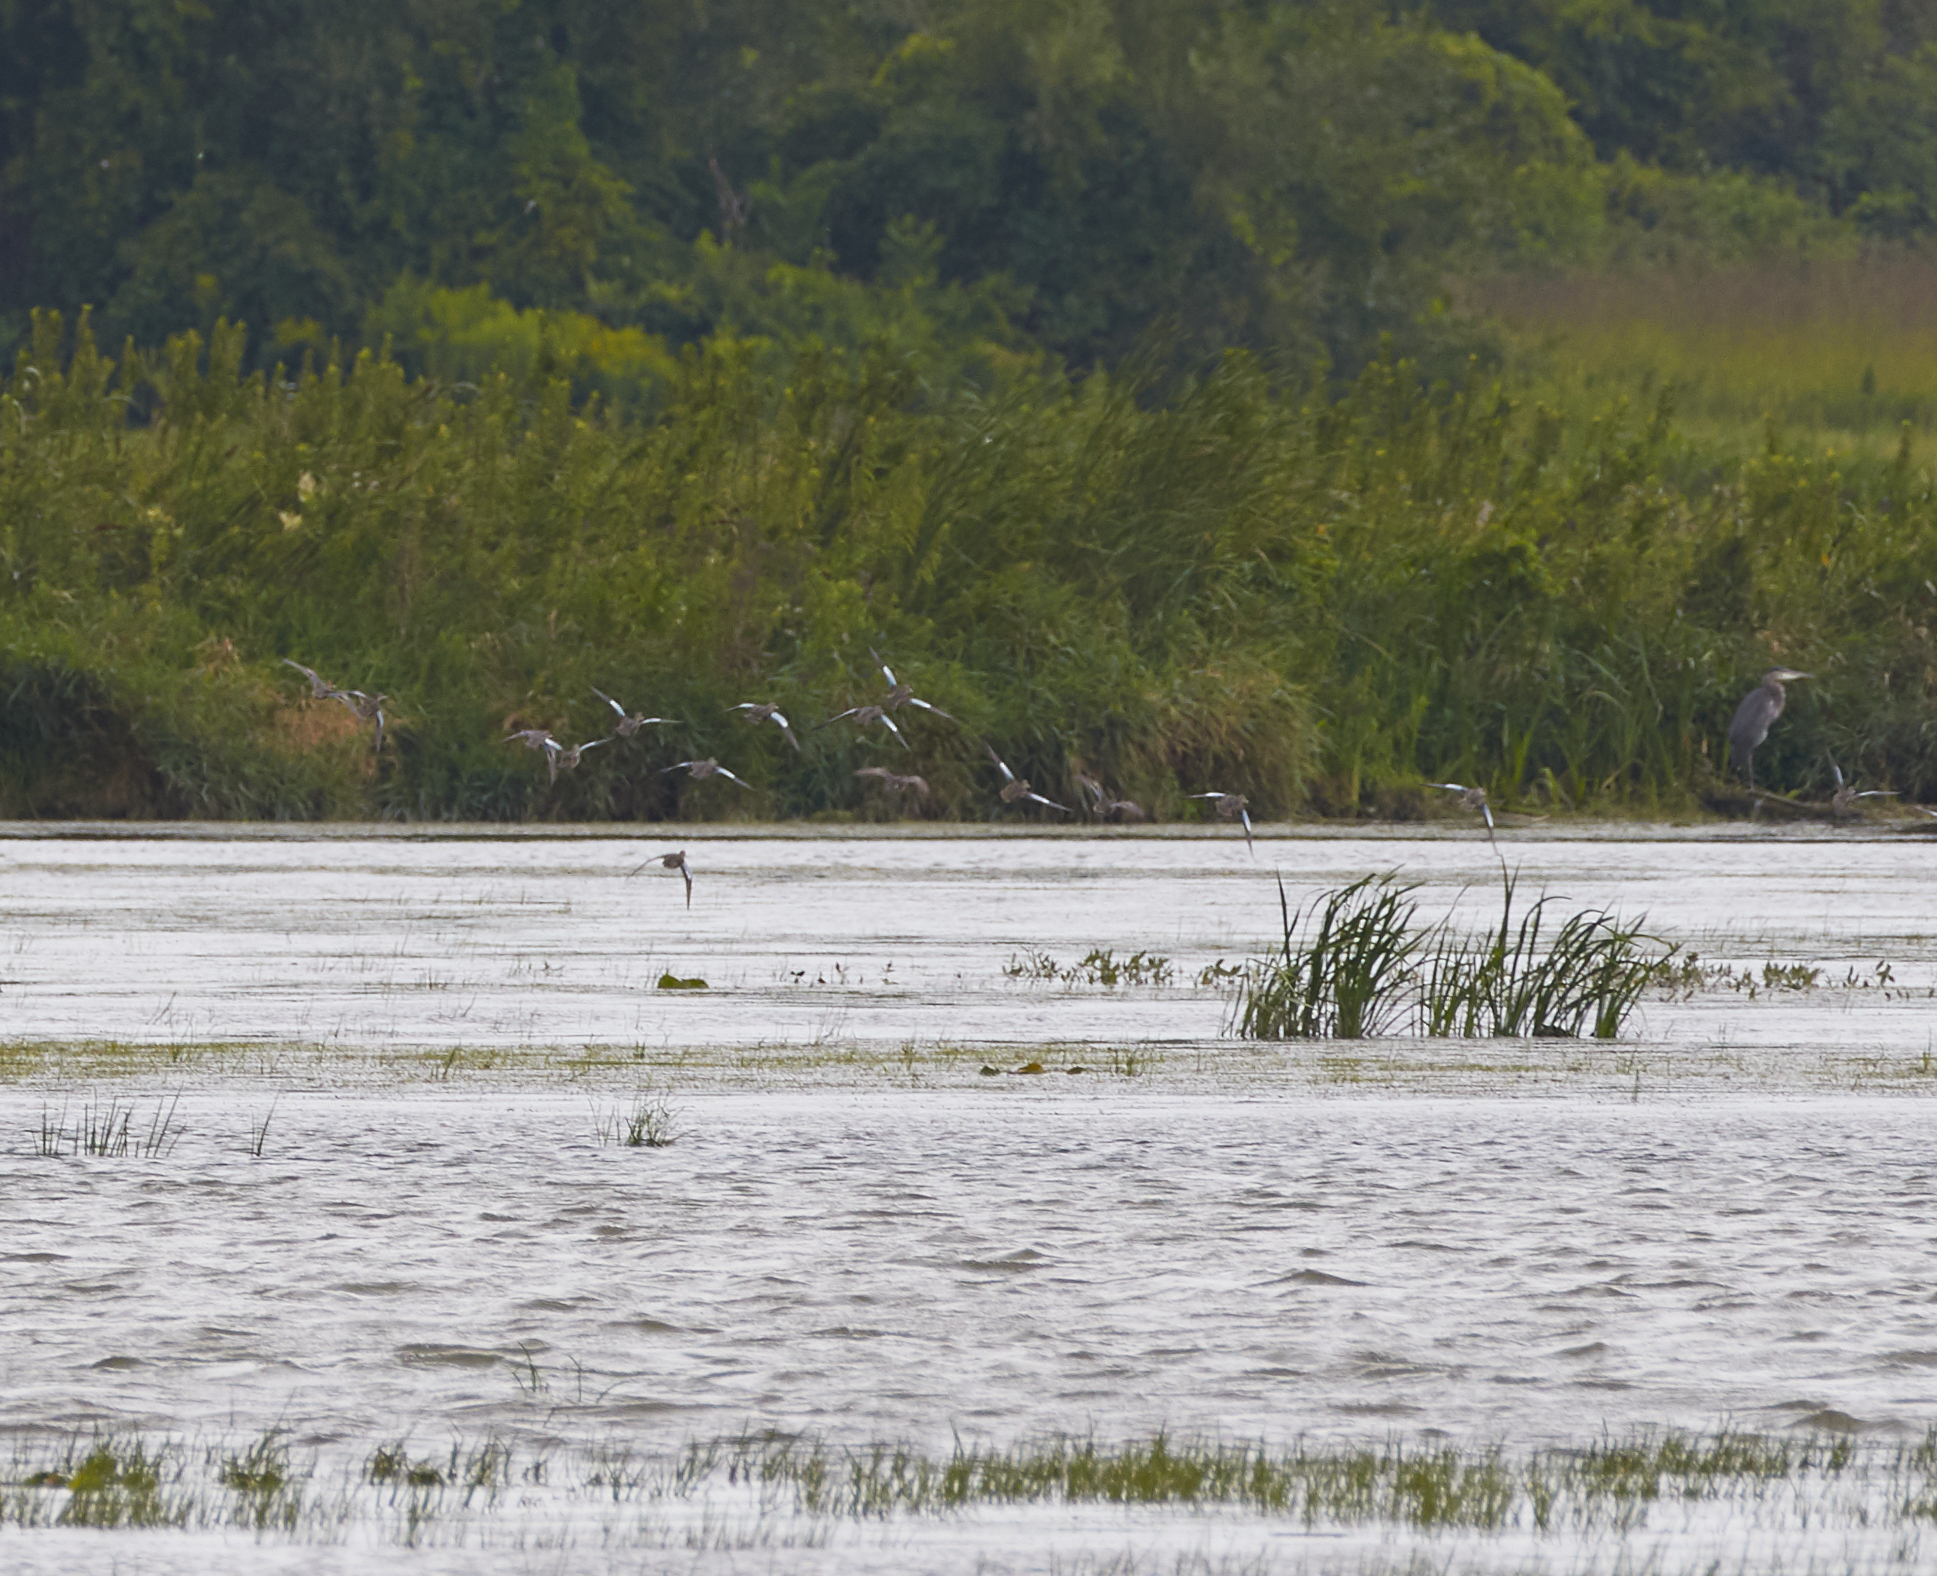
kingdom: Animalia
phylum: Chordata
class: Aves
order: Anseriformes
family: Anatidae
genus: Spatula
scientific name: Spatula discors
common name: Blue-winged teal
